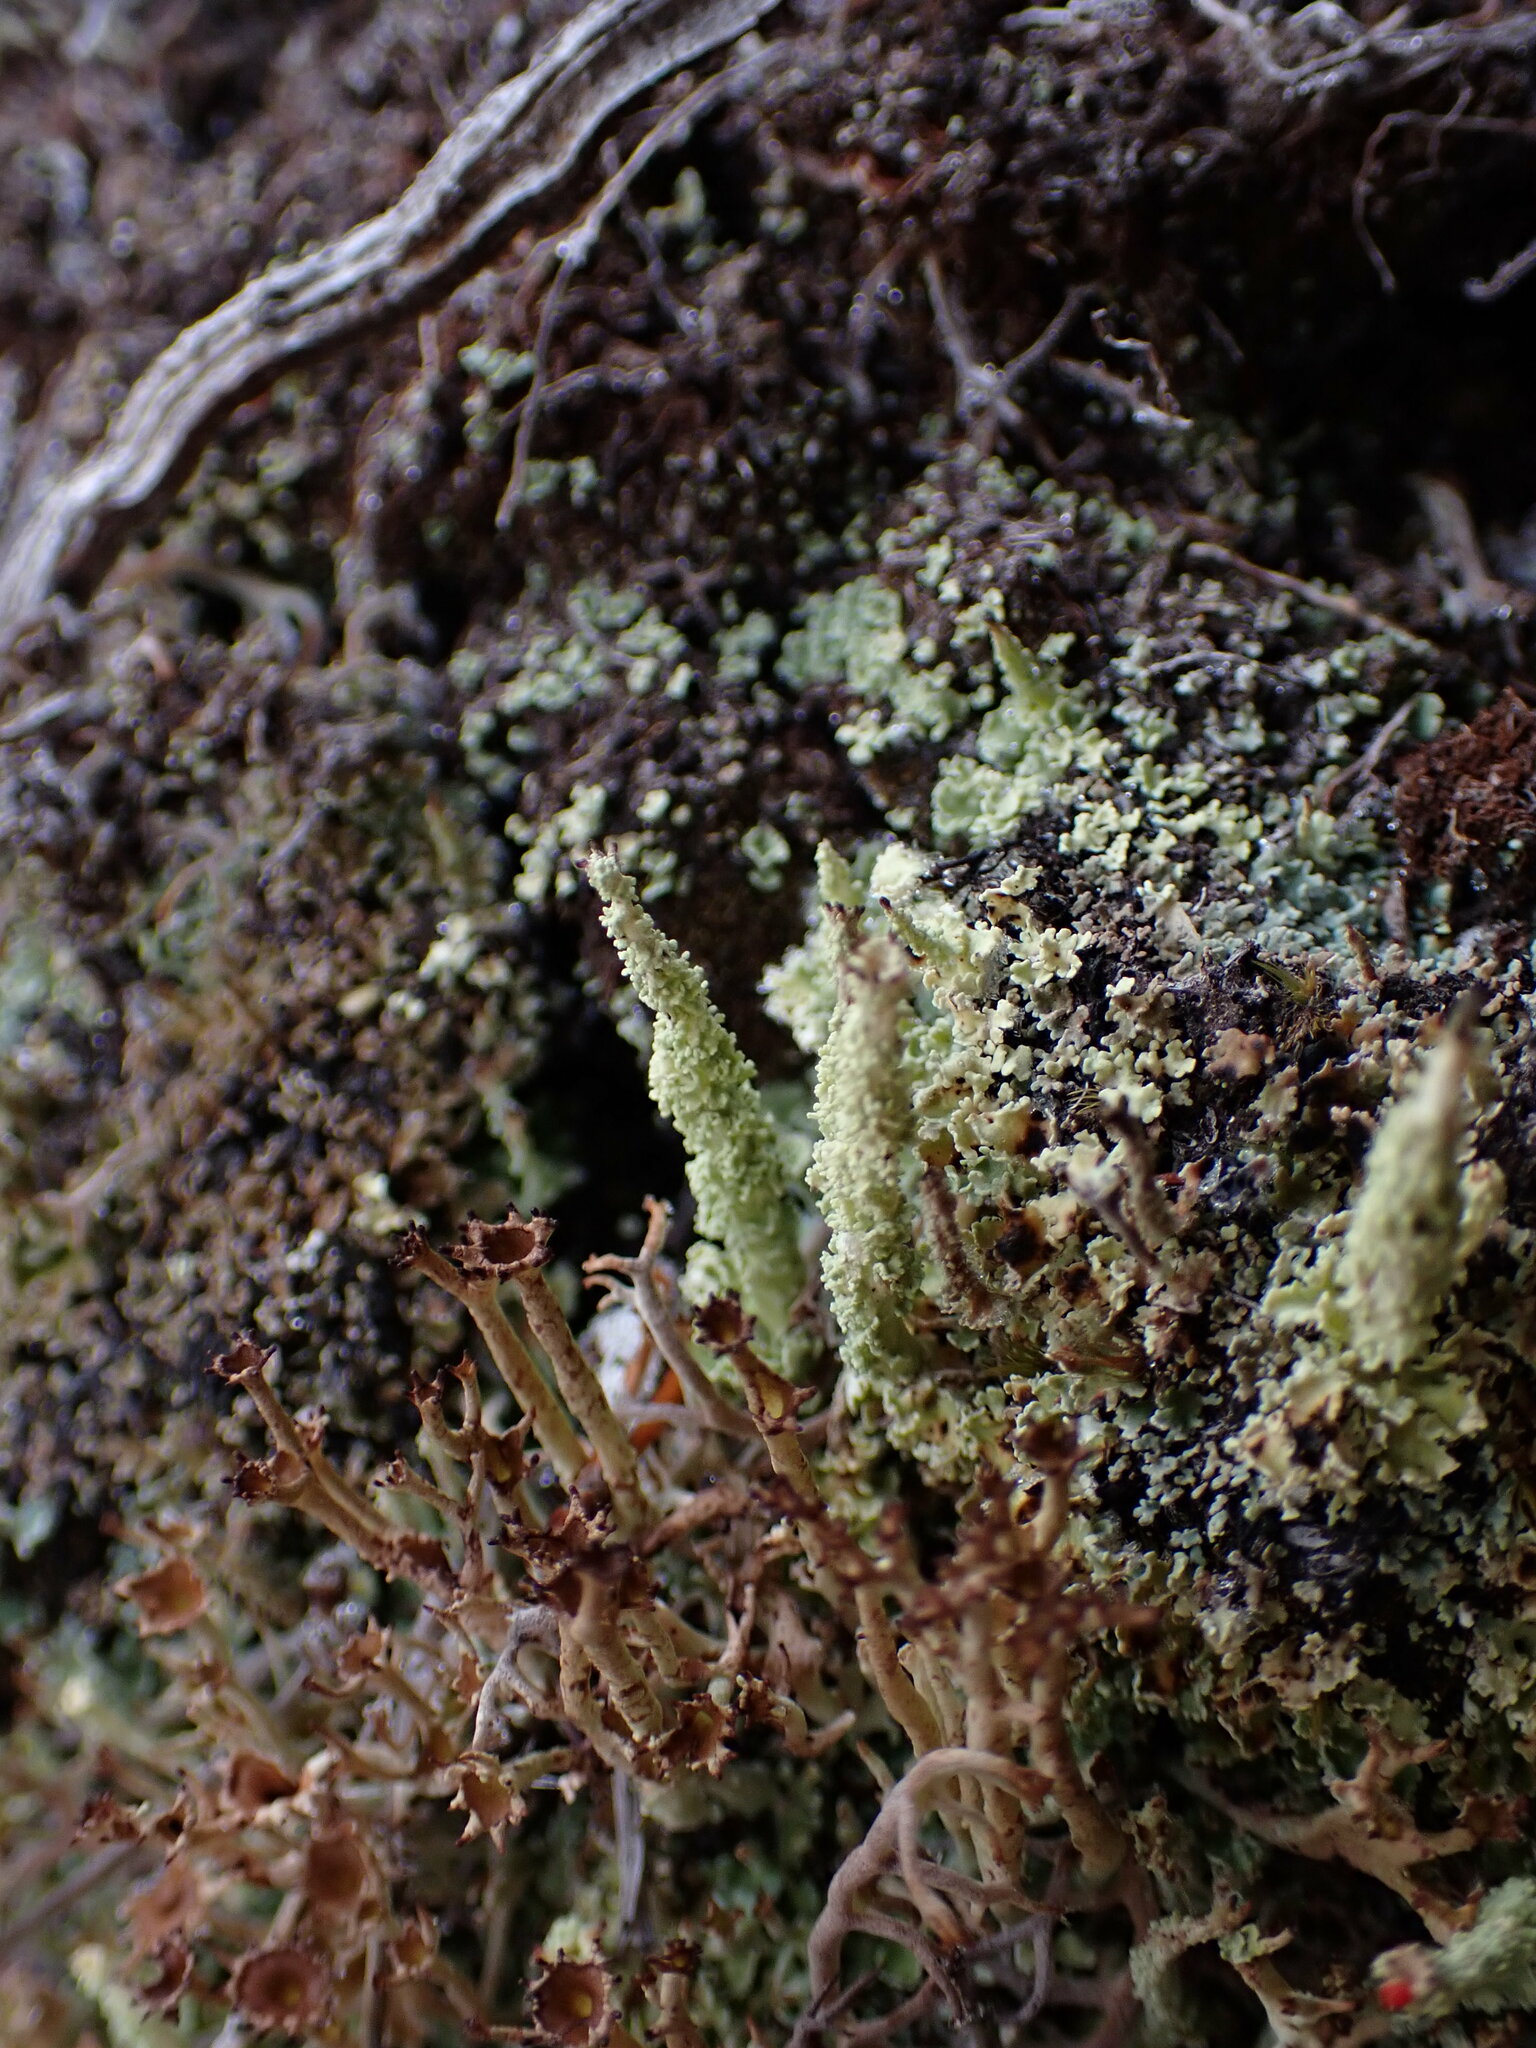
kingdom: Fungi
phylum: Ascomycota
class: Lecanoromycetes
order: Lecanorales
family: Cladoniaceae
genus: Cladonia
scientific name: Cladonia squamosa
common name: Dragon horn
